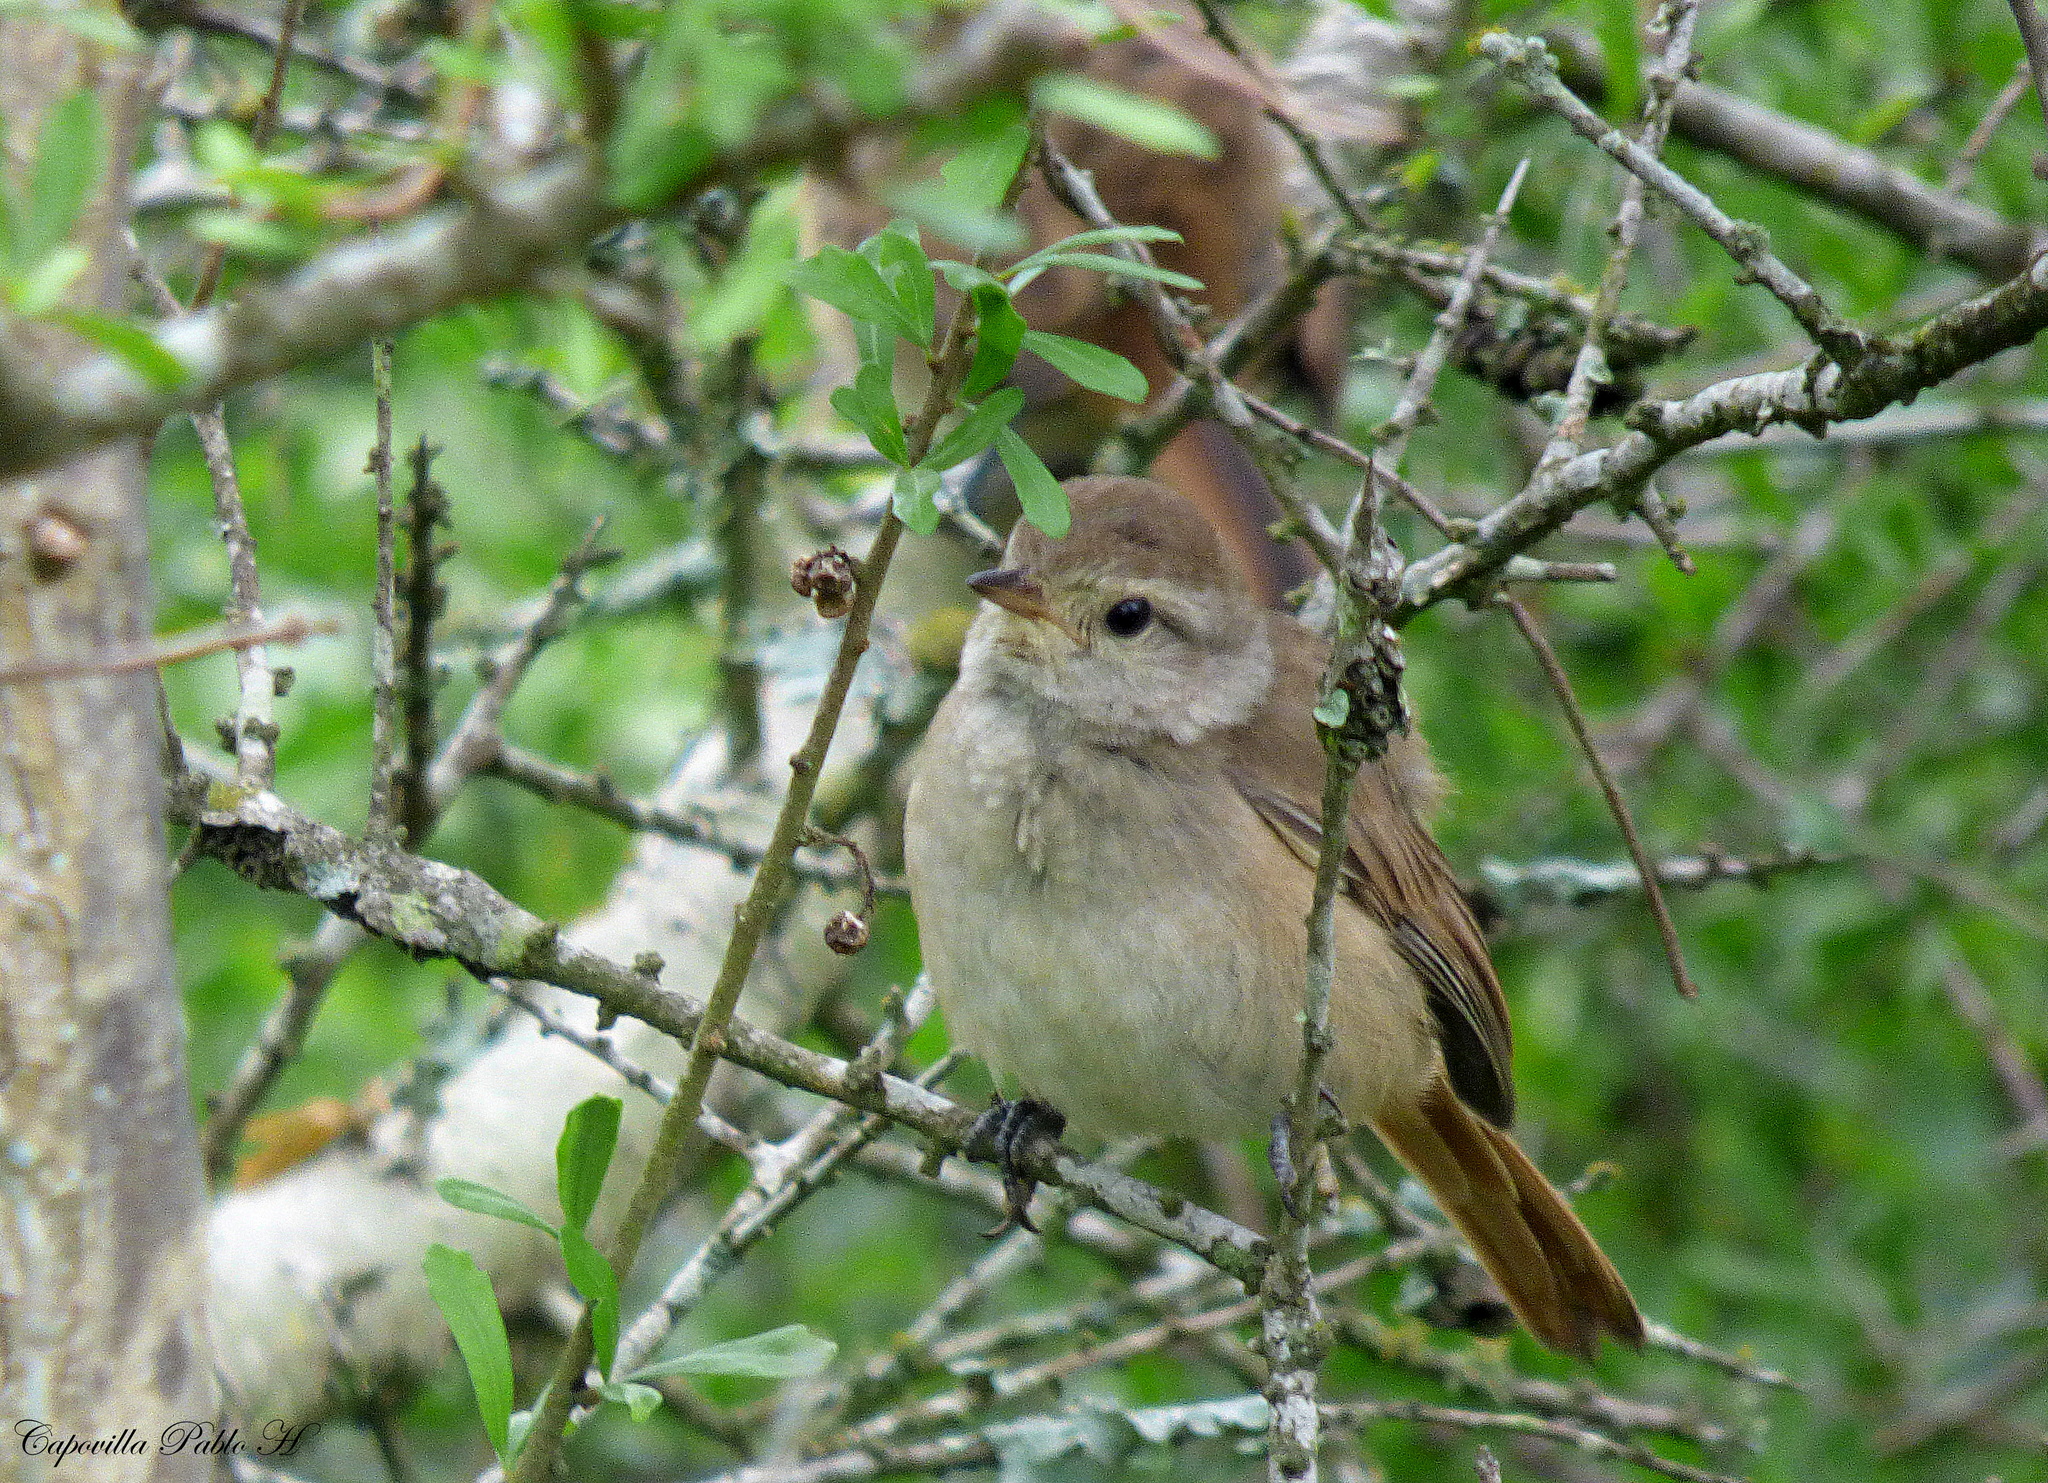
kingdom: Animalia
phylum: Chordata
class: Aves
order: Passeriformes
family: Furnariidae
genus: Asthenes
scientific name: Asthenes baeri
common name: Short-billed canastero
